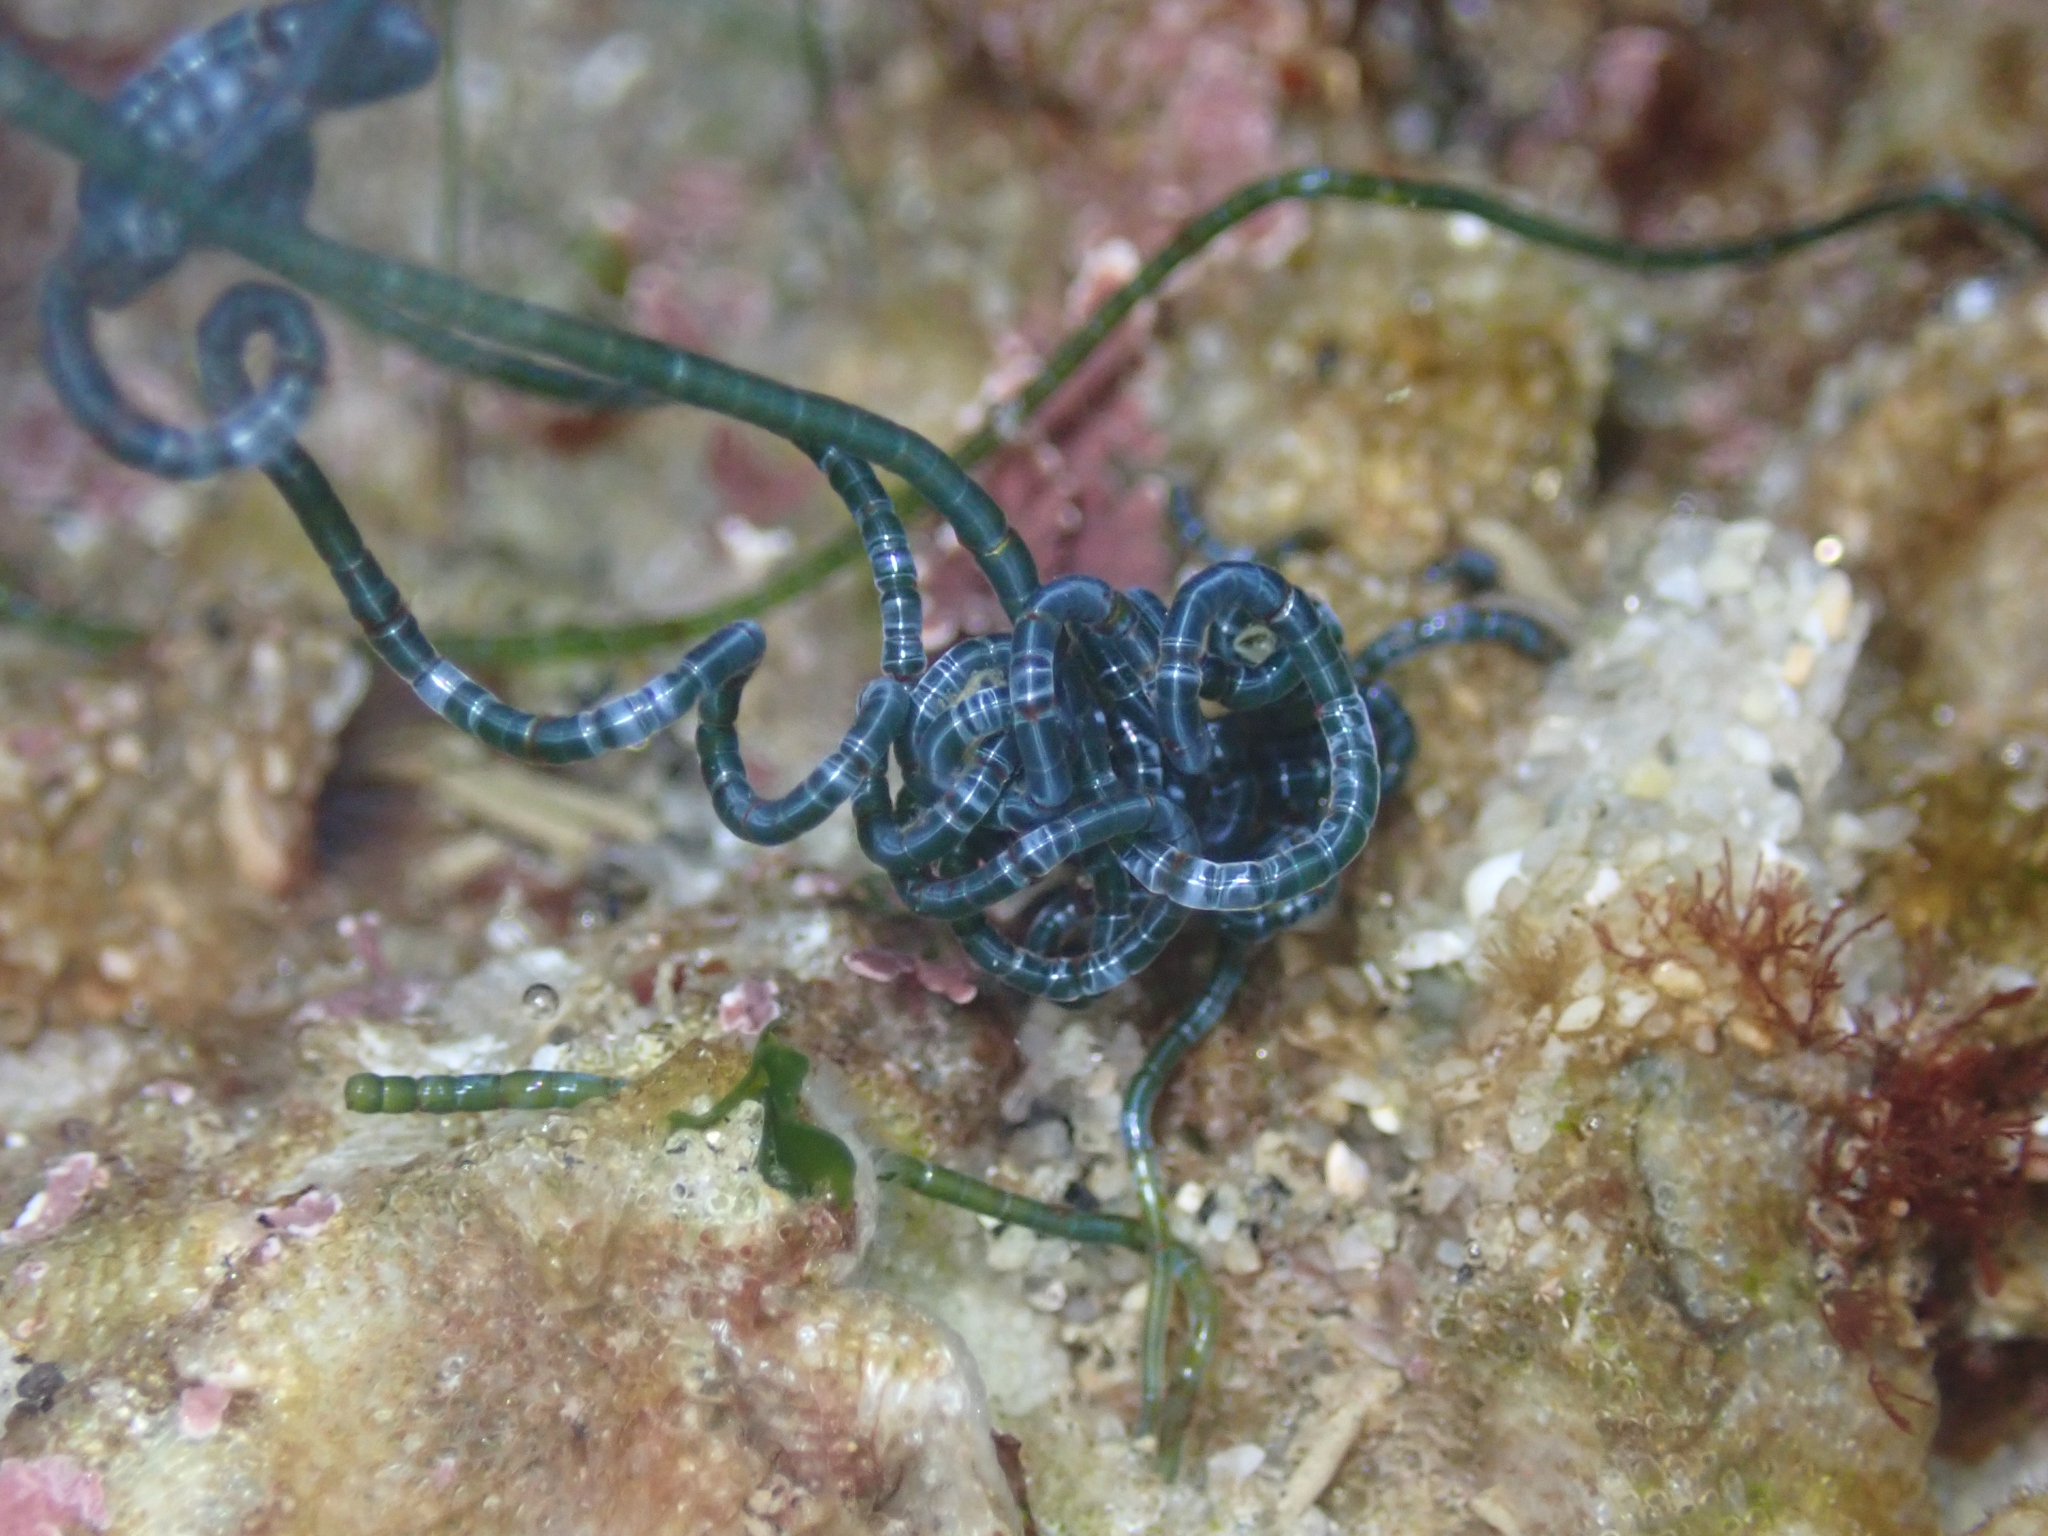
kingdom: Plantae
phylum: Chlorophyta
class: Ulvophyceae
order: Cladophorales
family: Cladophoraceae
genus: Chaetomorpha
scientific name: Chaetomorpha spiralis
